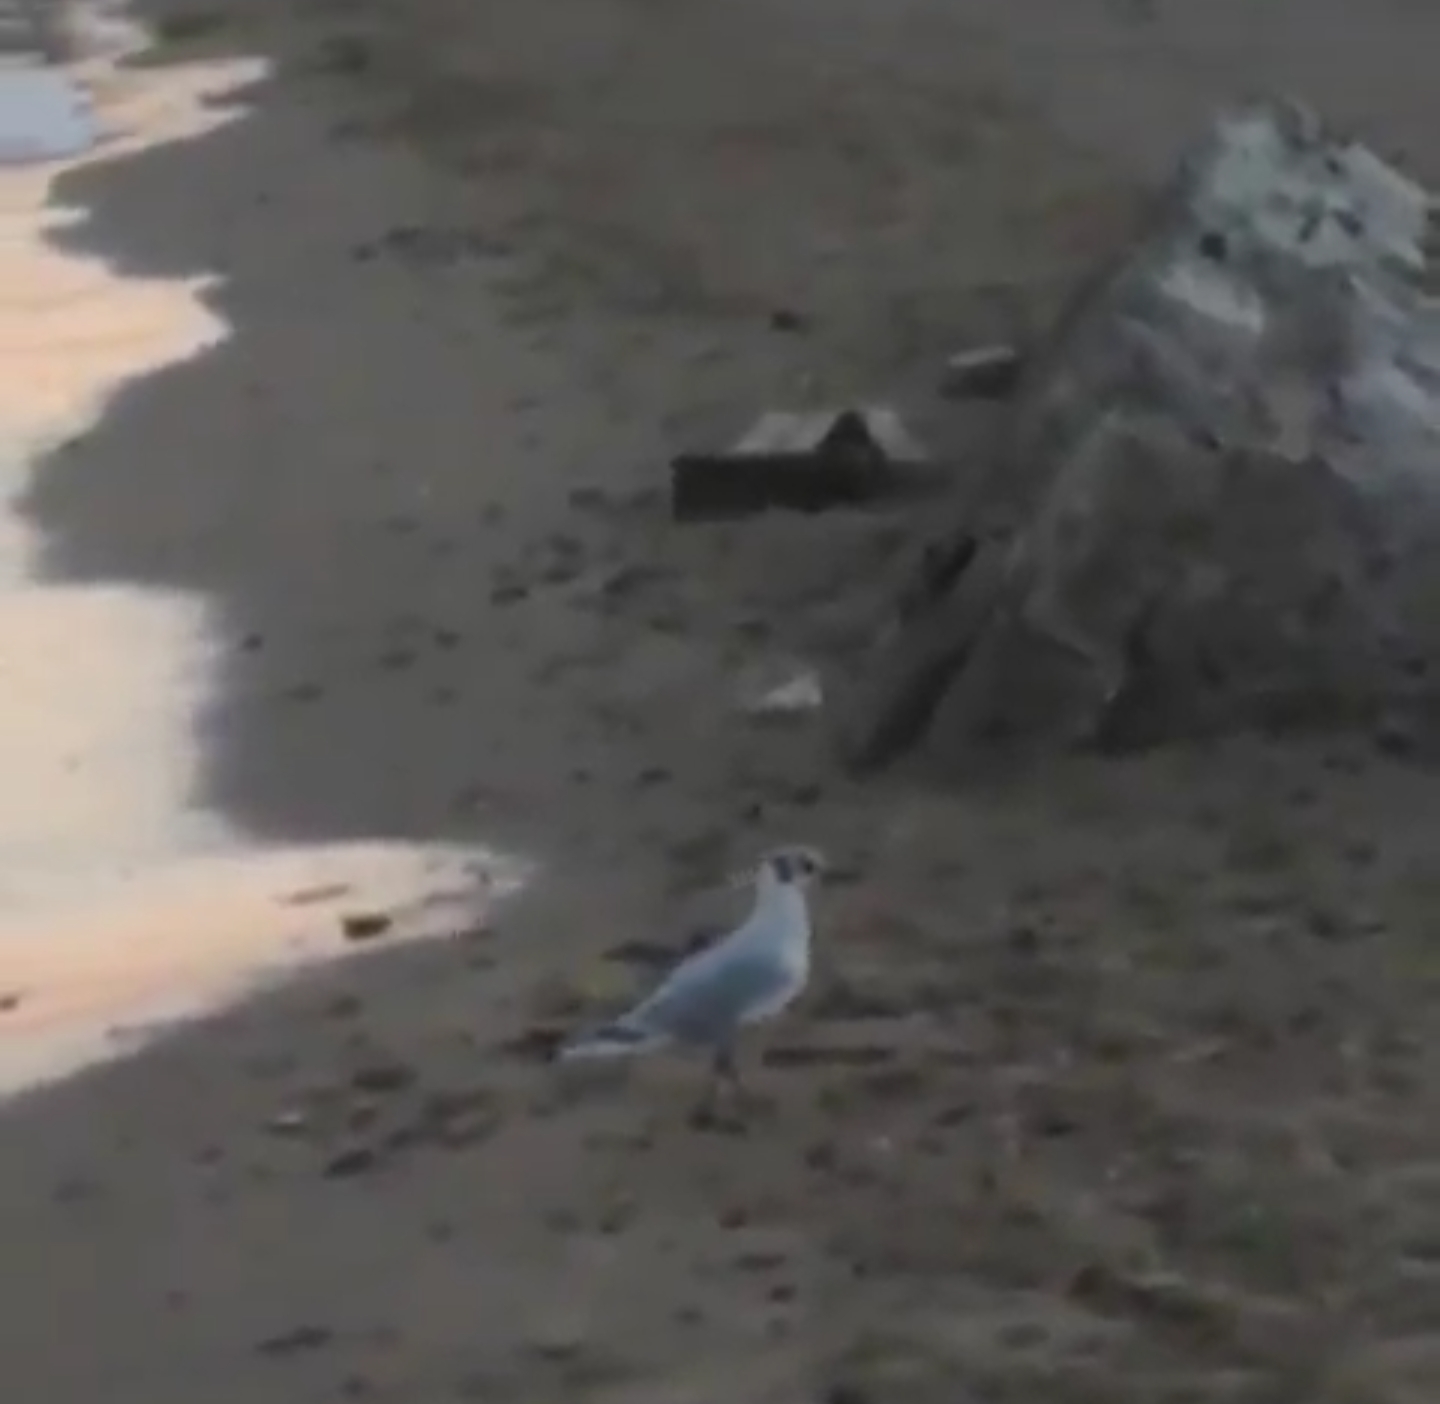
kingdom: Animalia
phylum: Chordata
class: Aves
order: Charadriiformes
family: Laridae
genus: Chroicocephalus
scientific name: Chroicocephalus ridibundus
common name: Black-headed gull
